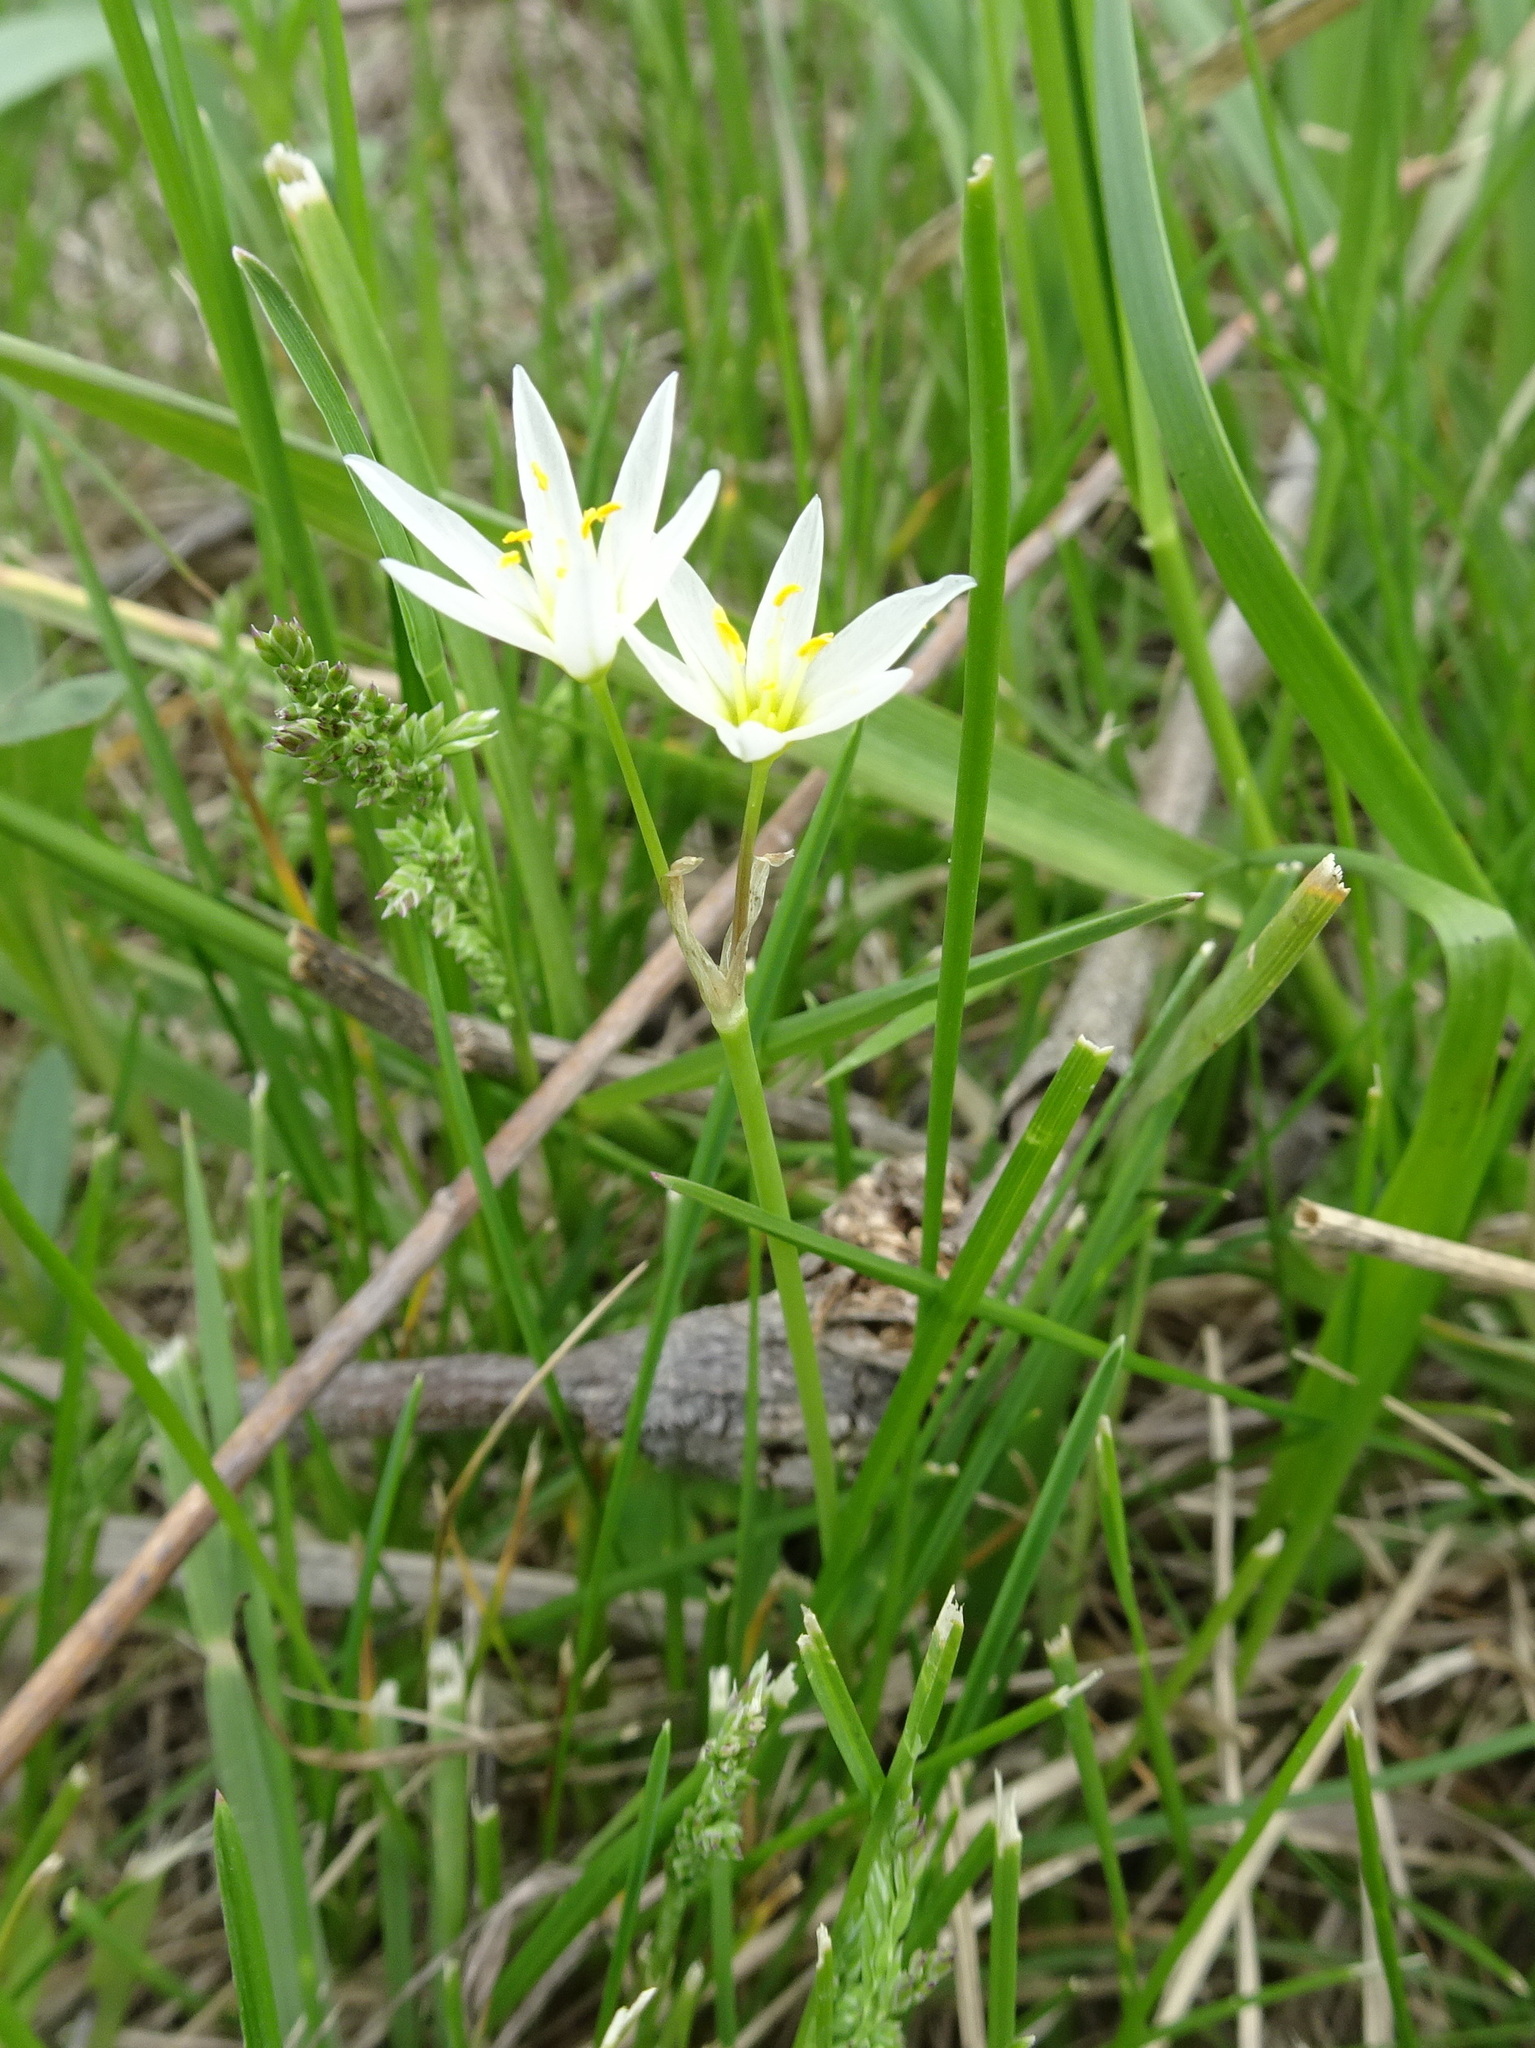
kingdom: Plantae
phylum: Tracheophyta
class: Liliopsida
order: Asparagales
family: Amaryllidaceae
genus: Nothoscordum
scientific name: Nothoscordum bivalve
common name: Crow-poison
